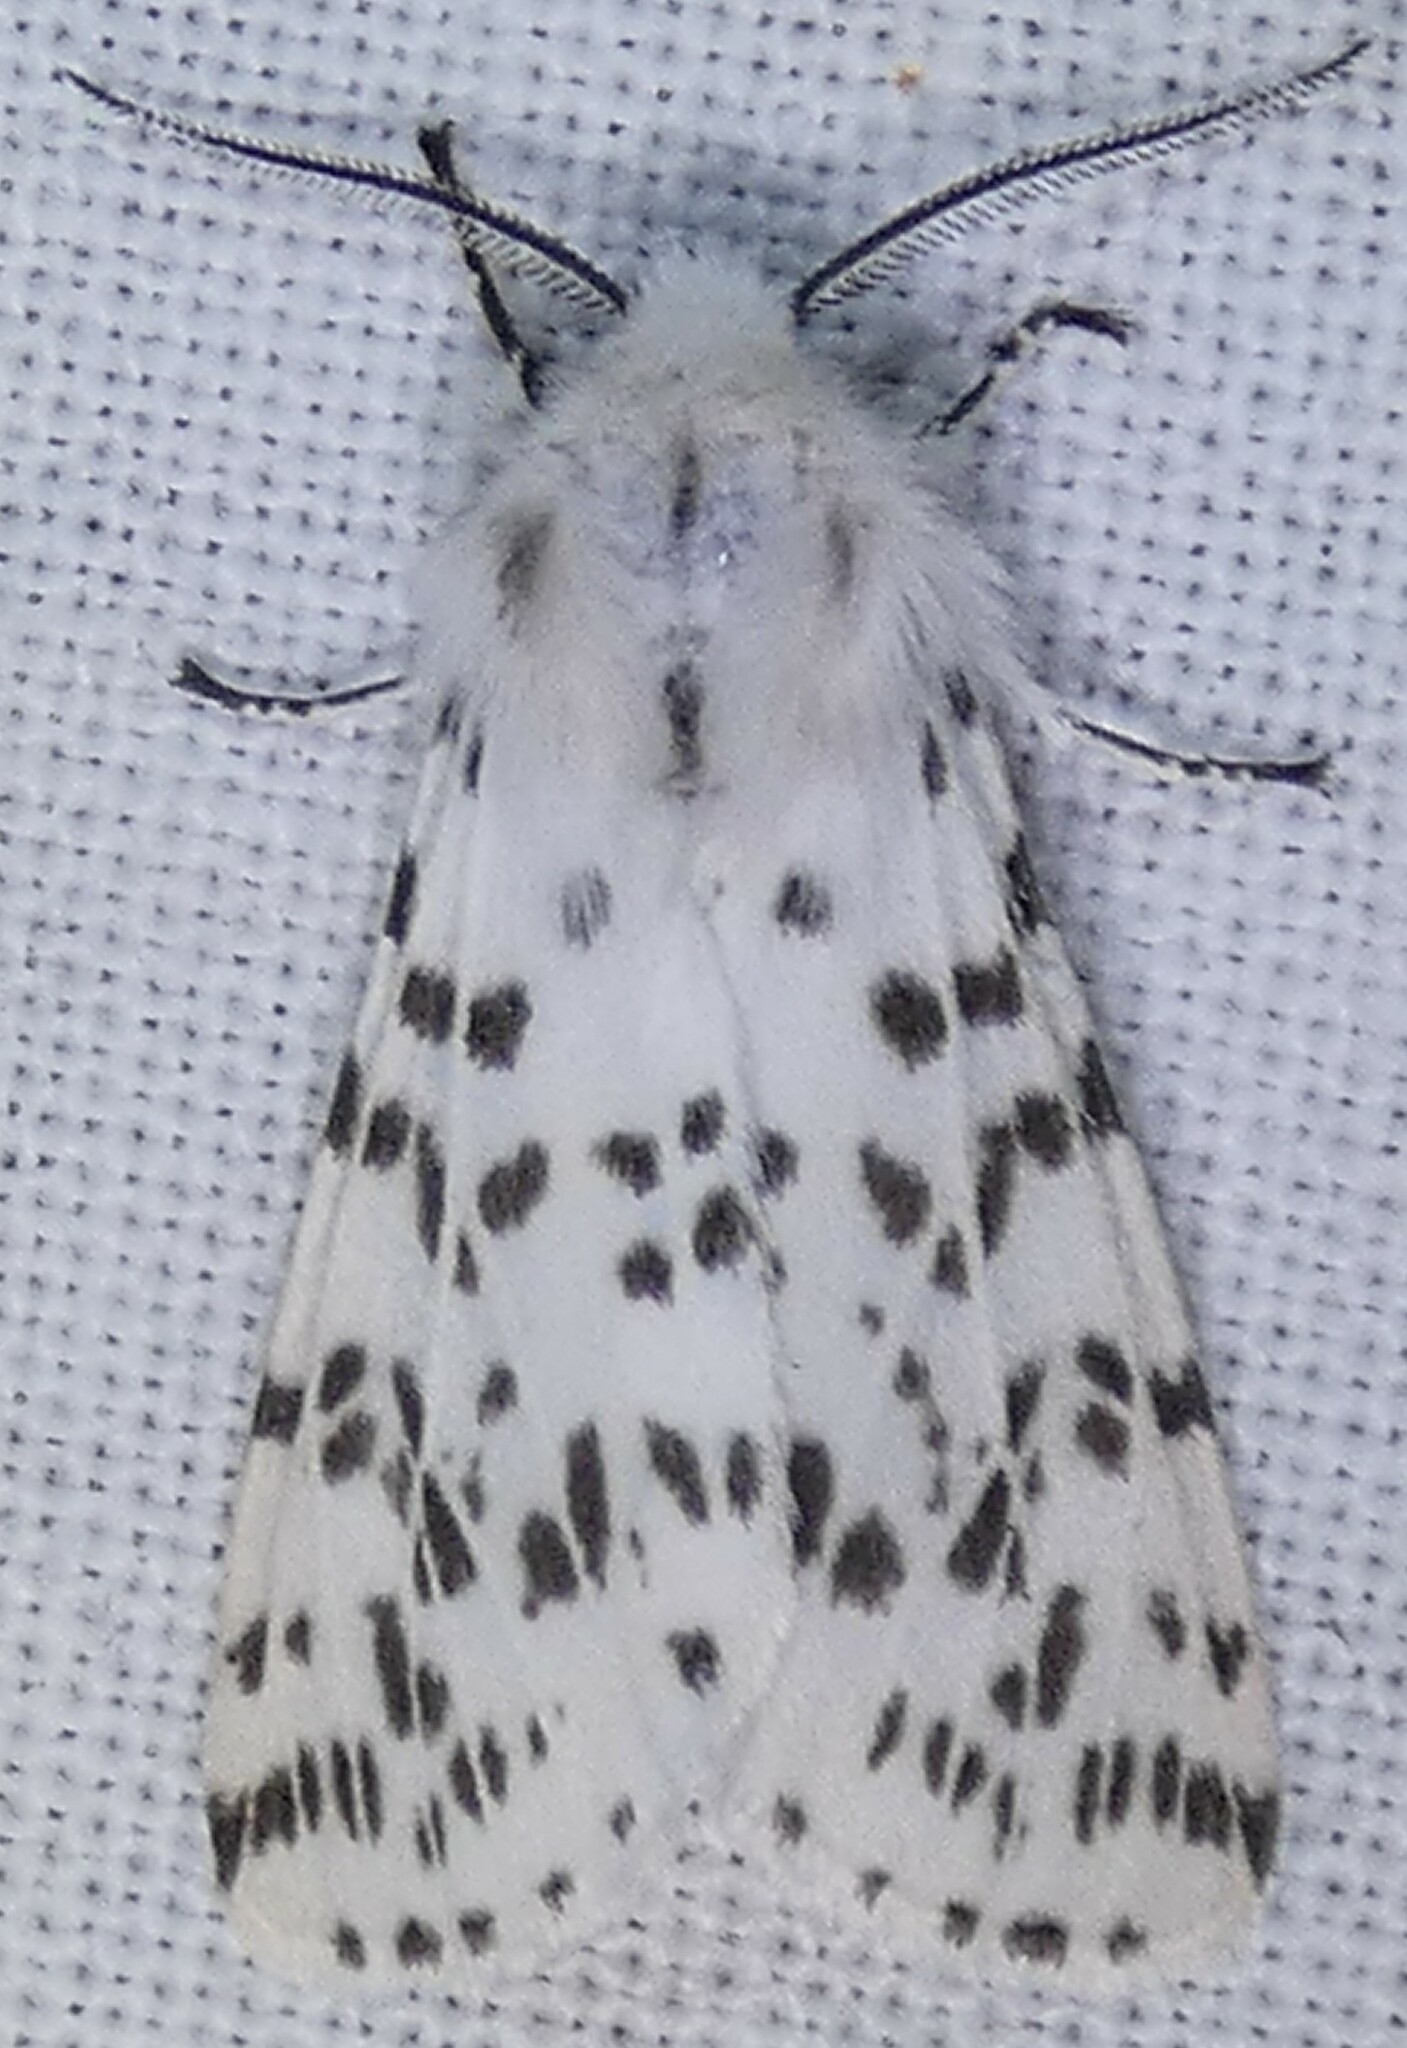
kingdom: Animalia
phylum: Arthropoda
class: Insecta
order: Lepidoptera
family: Erebidae
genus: Hyphantria
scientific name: Hyphantria cunea
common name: American white moth
